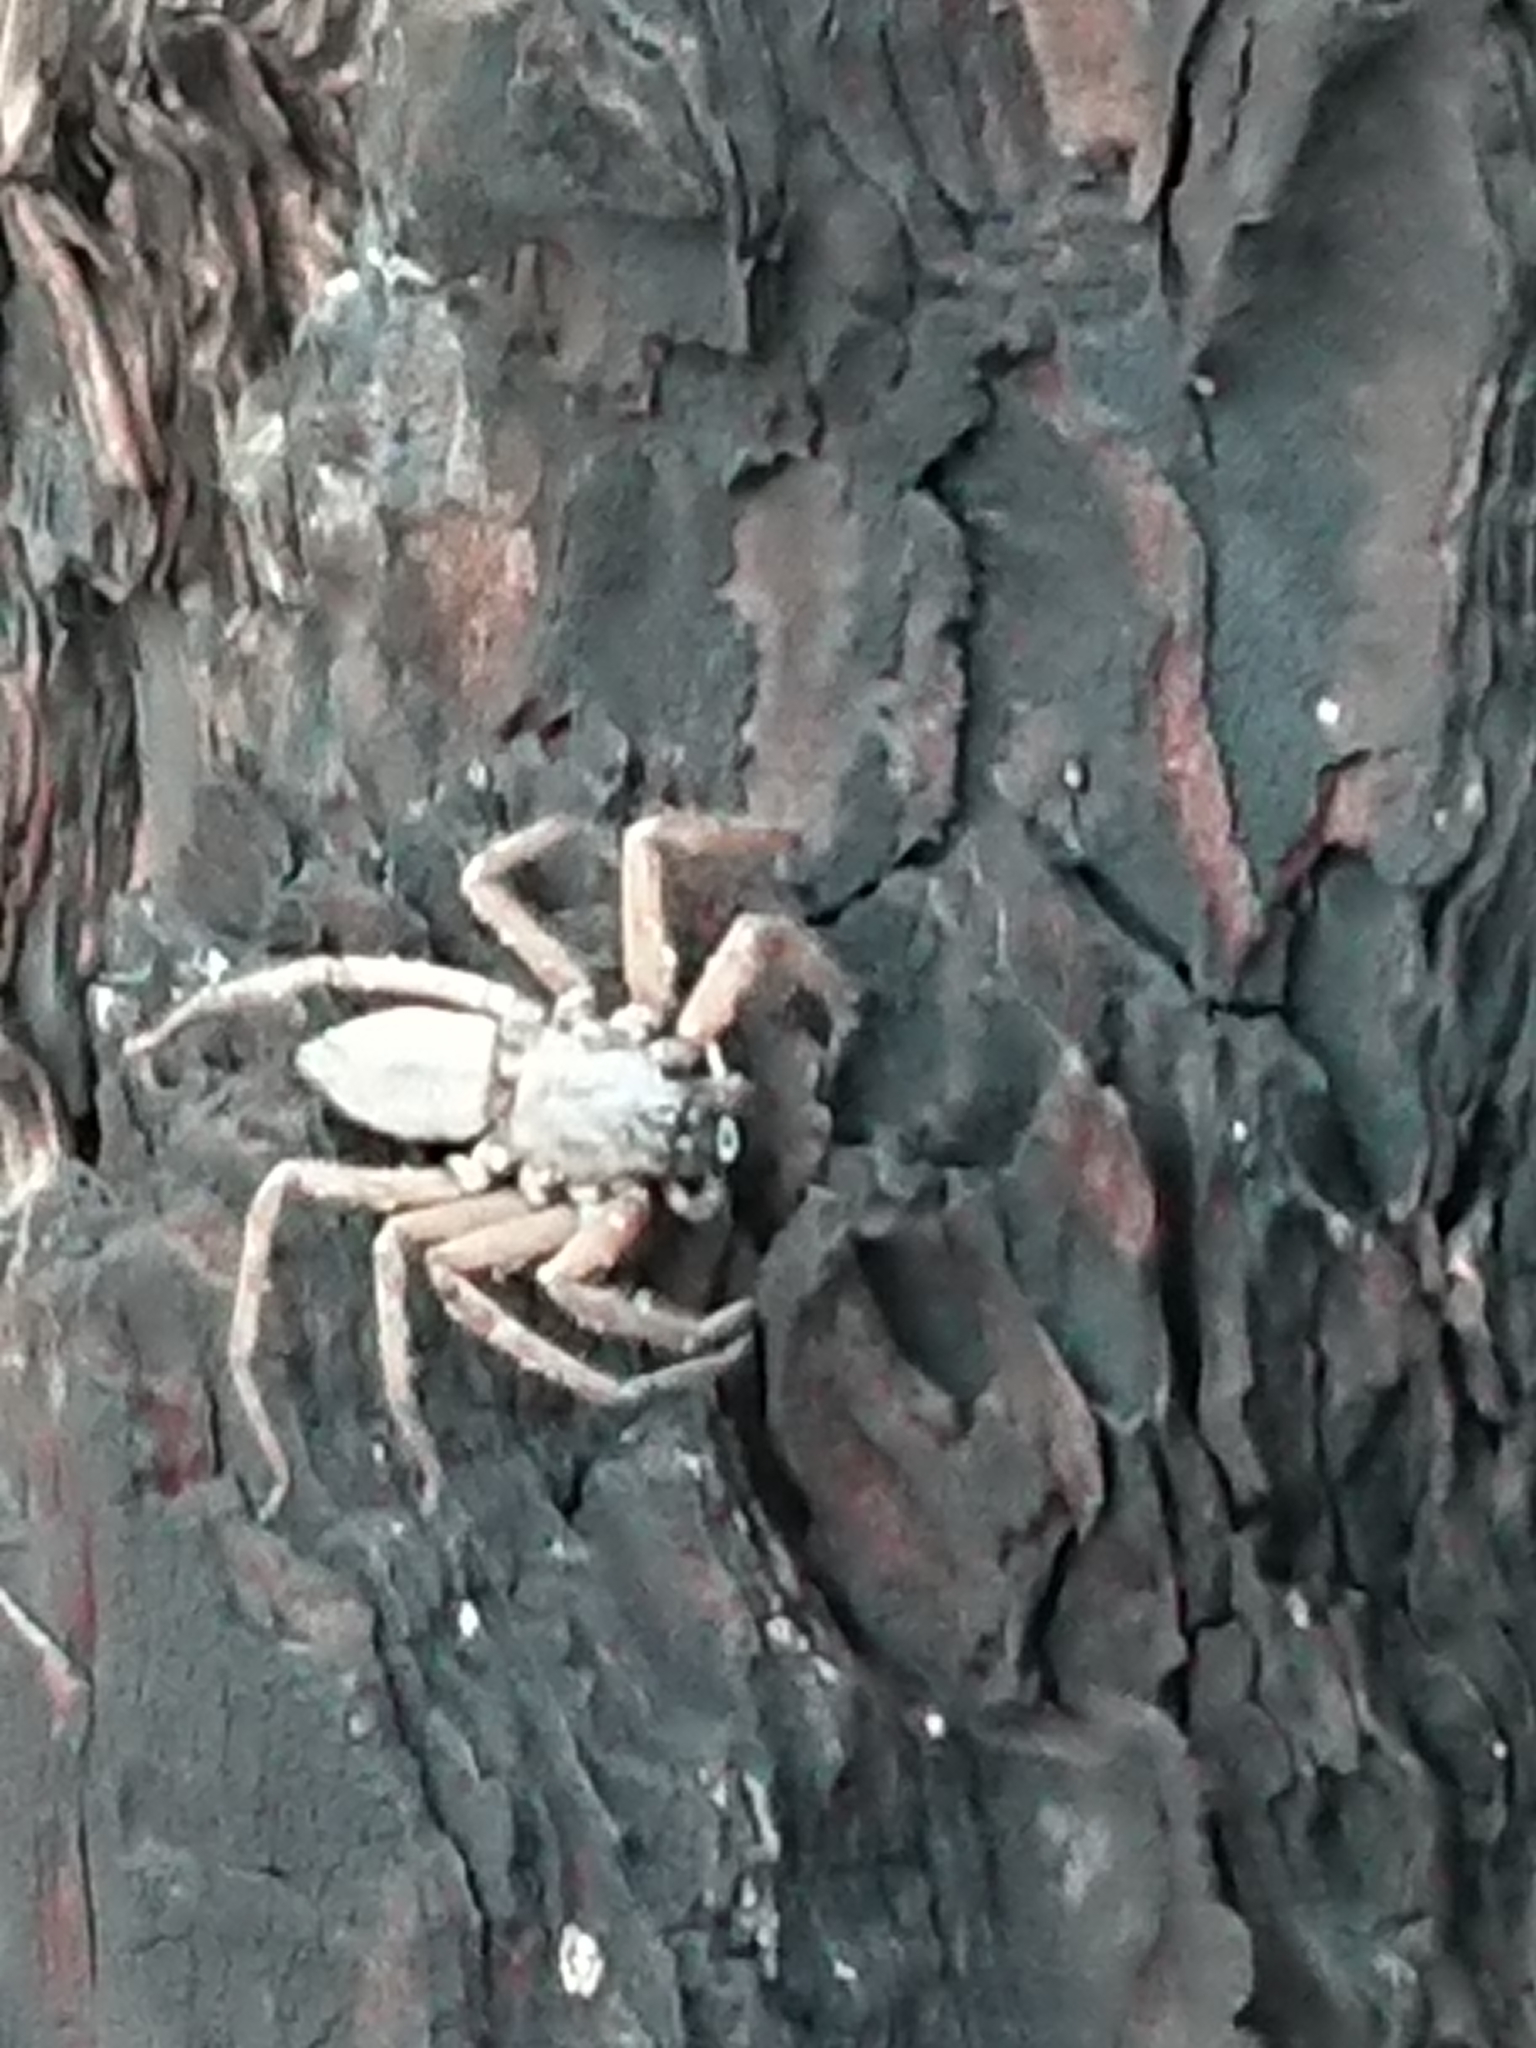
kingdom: Animalia
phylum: Arthropoda
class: Arachnida
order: Araneae
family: Trochanteriidae
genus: Hemicloea
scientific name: Hemicloea rogenhoferi
